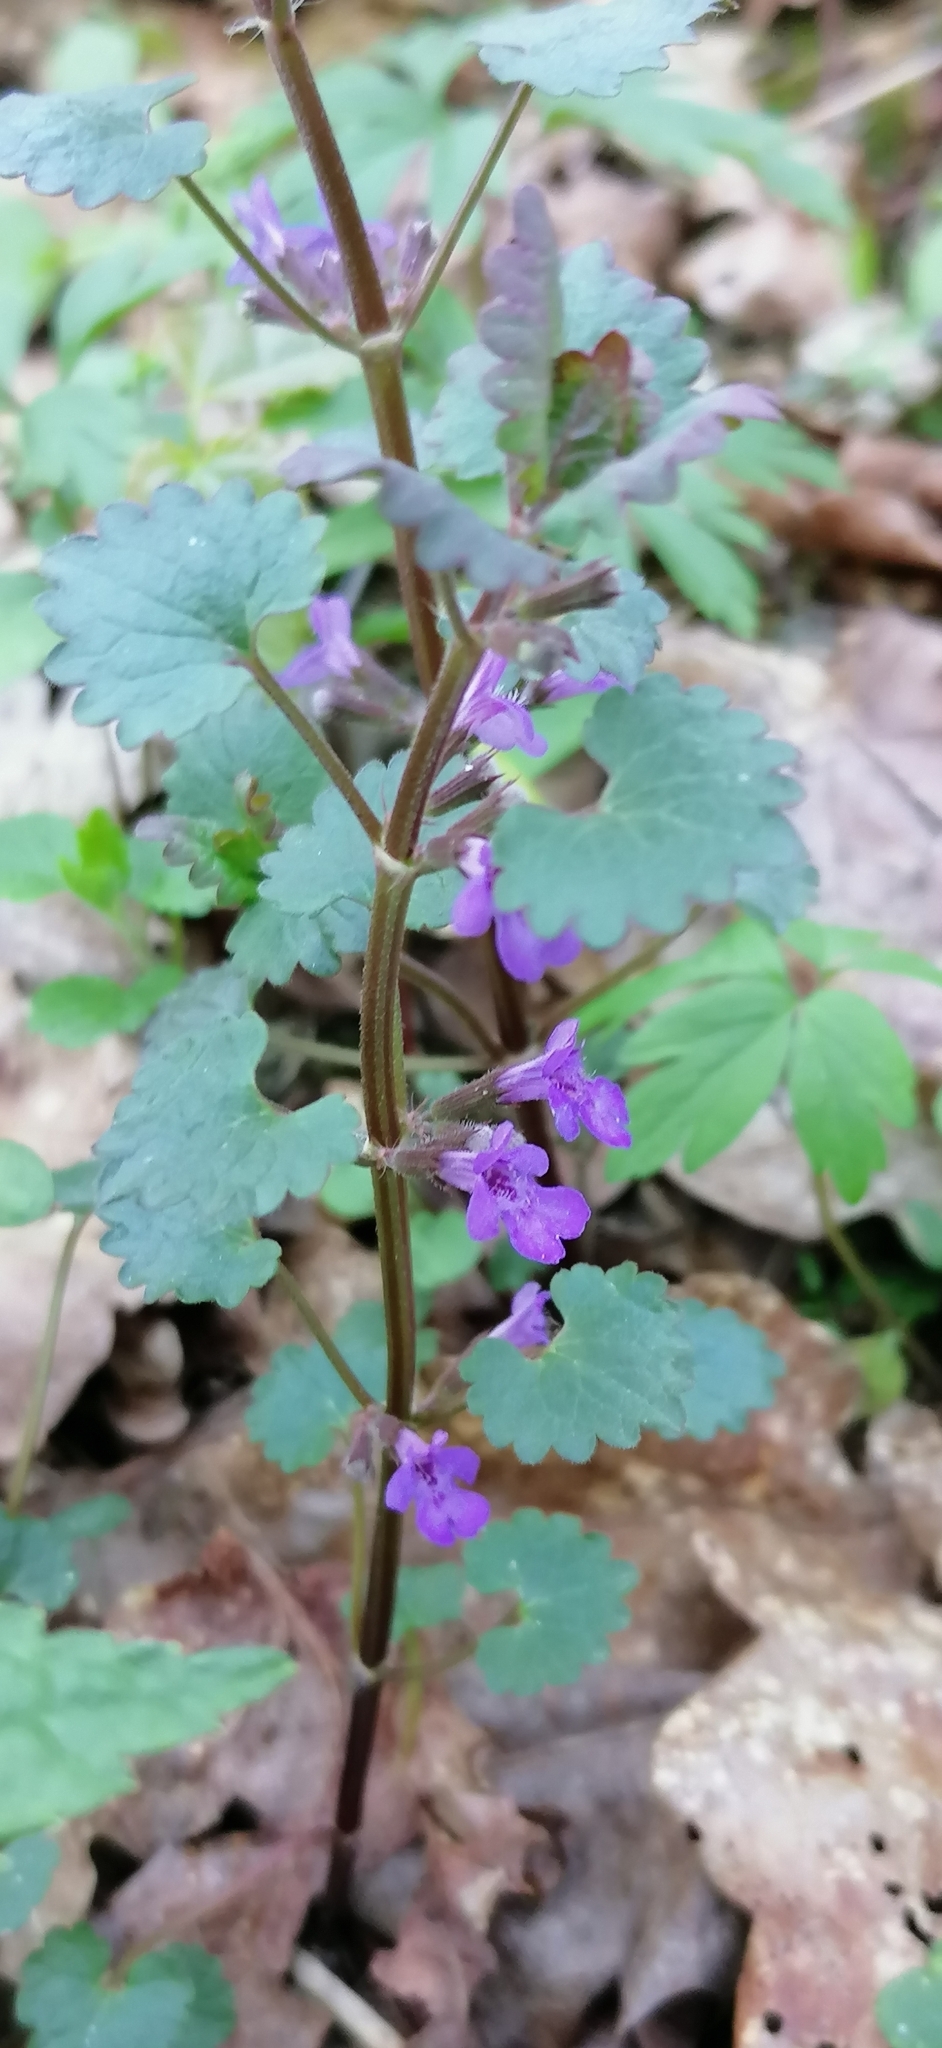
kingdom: Plantae
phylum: Tracheophyta
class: Magnoliopsida
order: Lamiales
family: Lamiaceae
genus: Glechoma
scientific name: Glechoma hederacea
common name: Ground ivy
